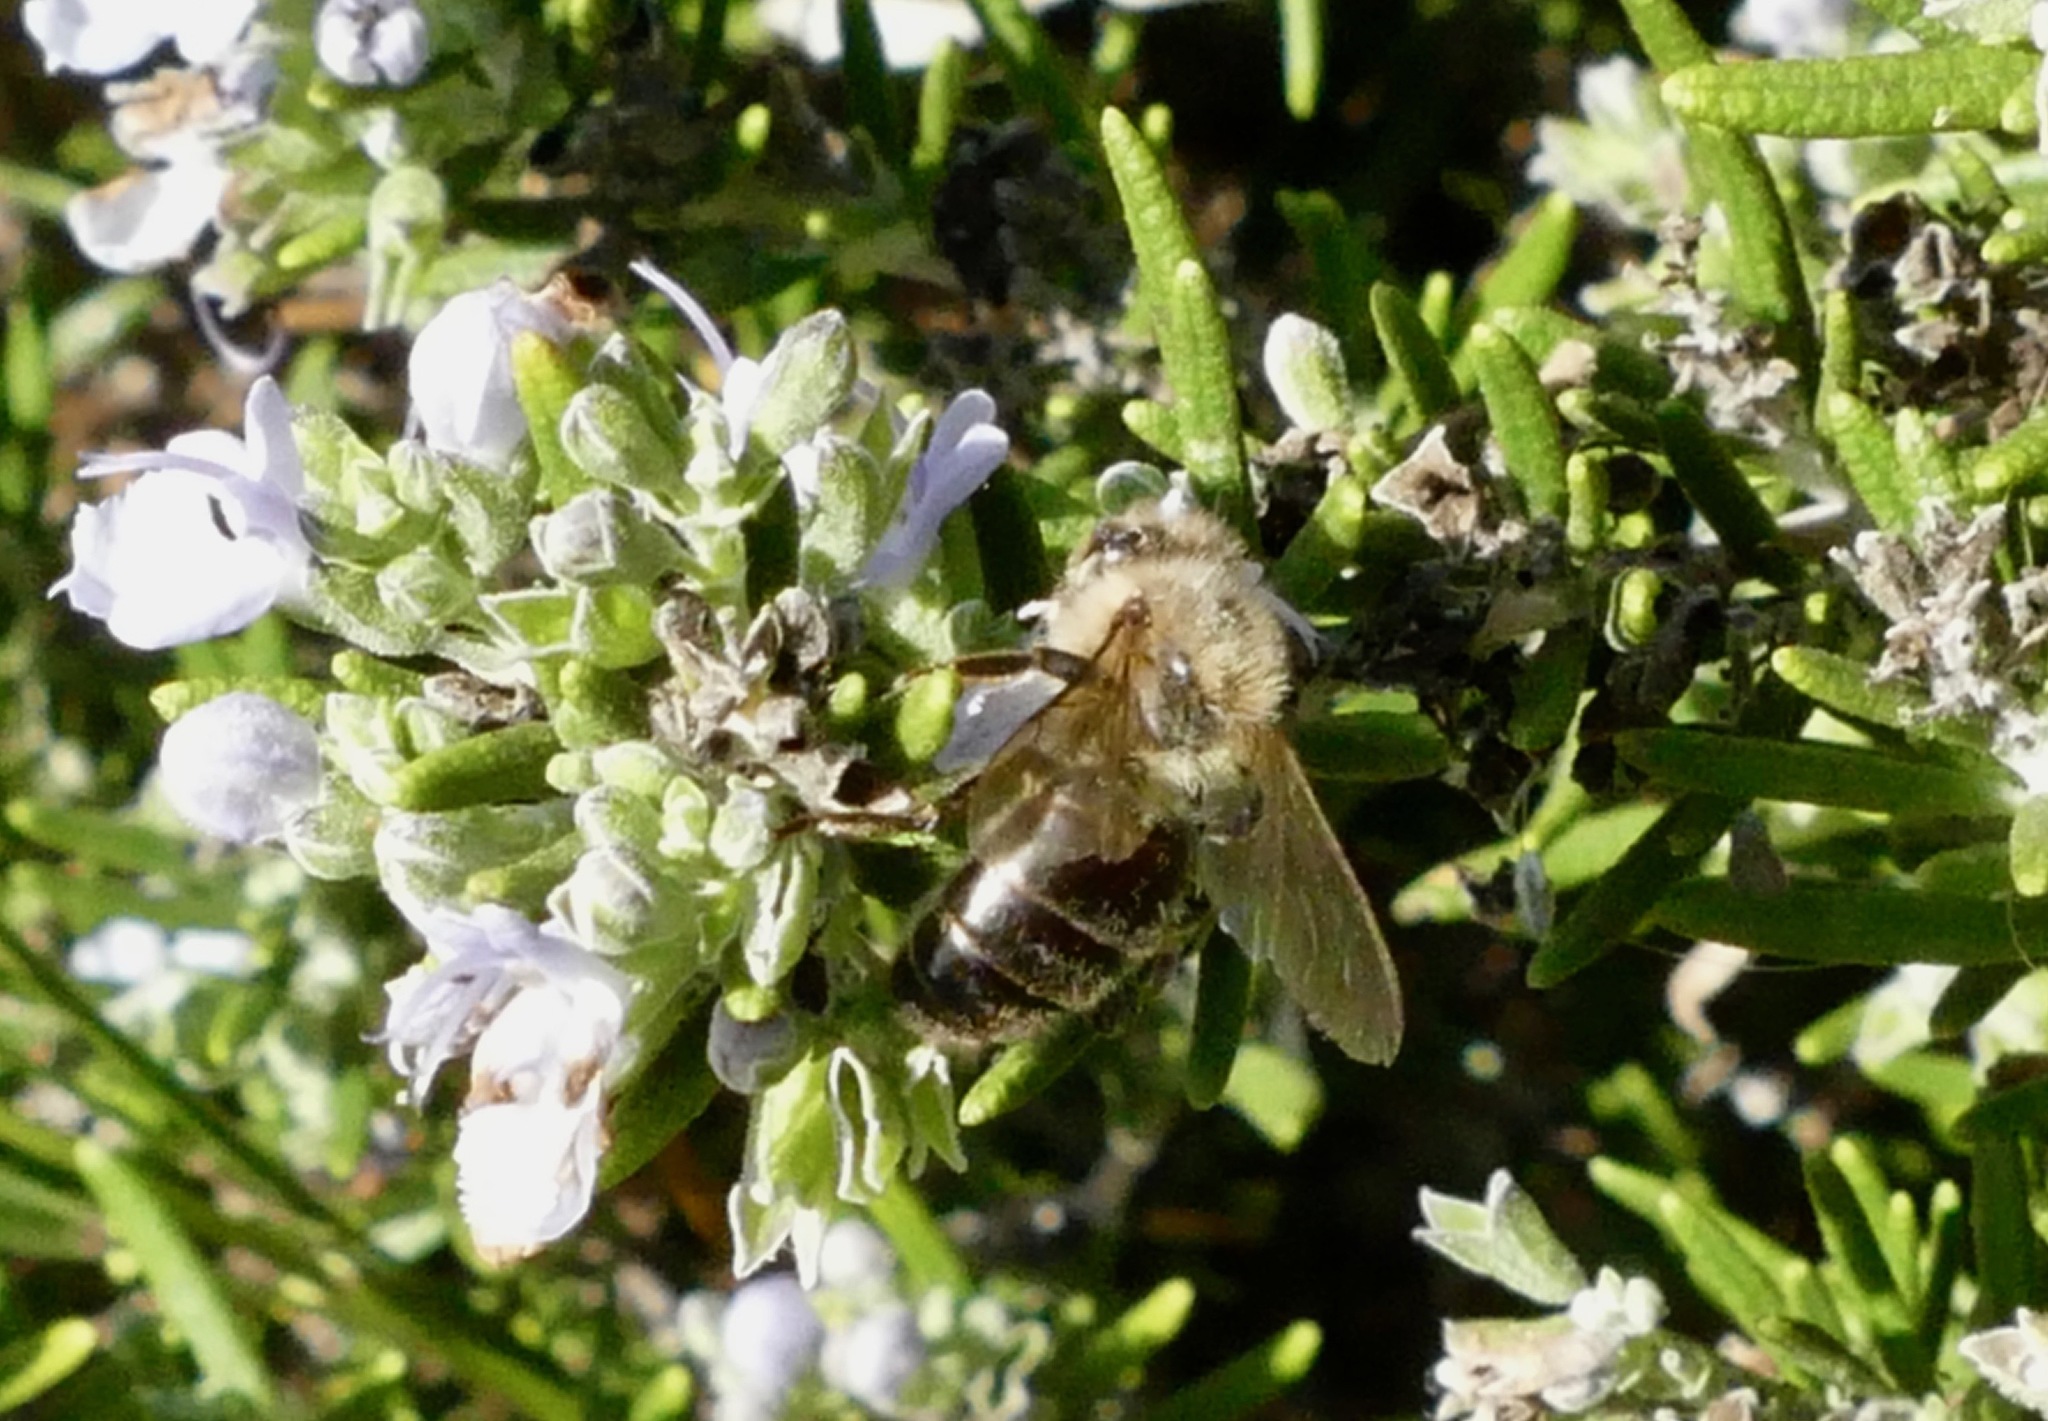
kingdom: Animalia
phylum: Arthropoda
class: Insecta
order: Hymenoptera
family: Apidae
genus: Apis
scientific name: Apis mellifera
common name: Honey bee
